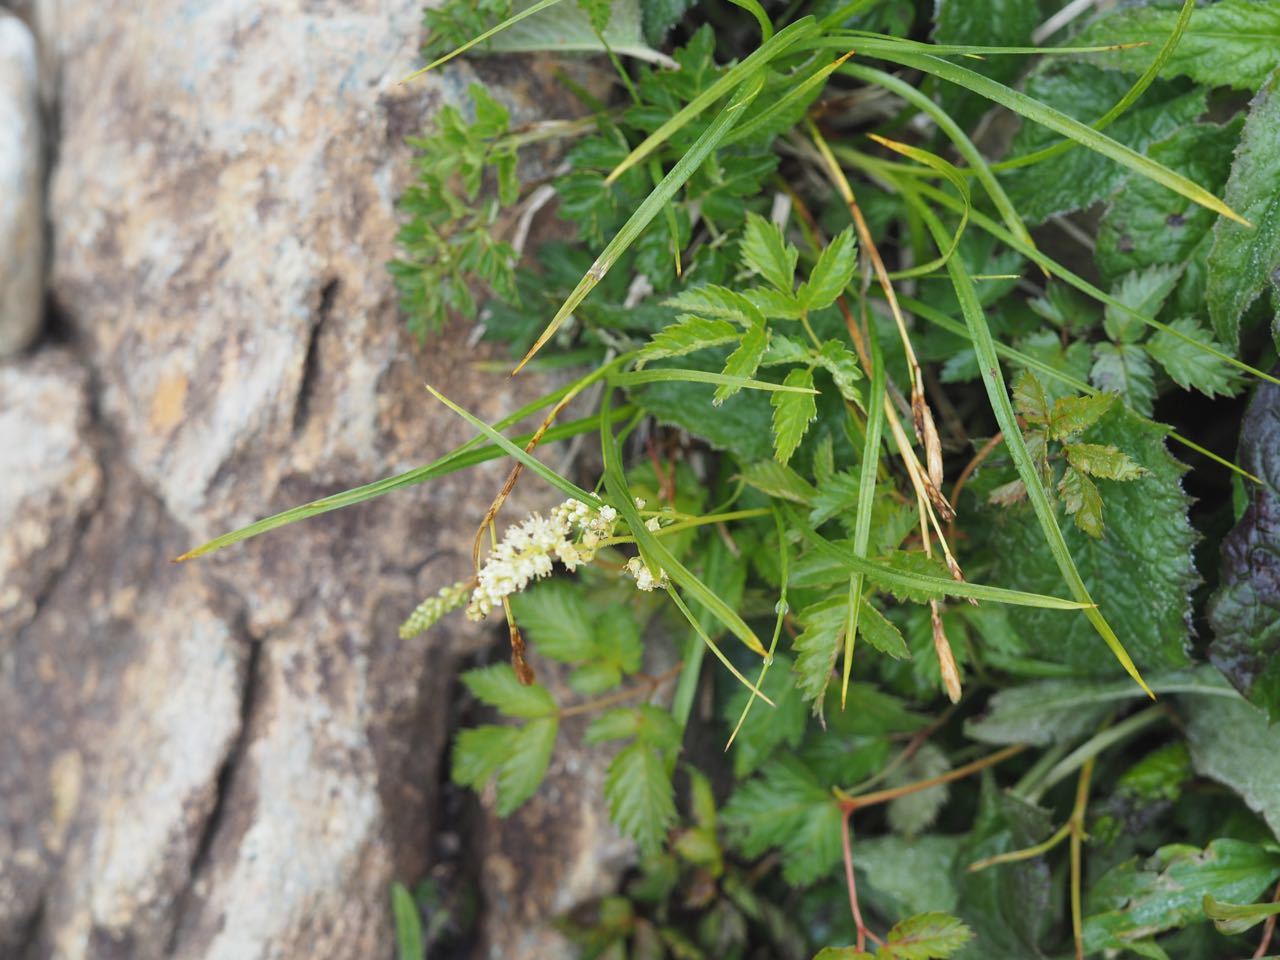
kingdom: Plantae
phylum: Tracheophyta
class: Magnoliopsida
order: Rosales
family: Rosaceae
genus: Aruncus
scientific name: Aruncus sylvester
